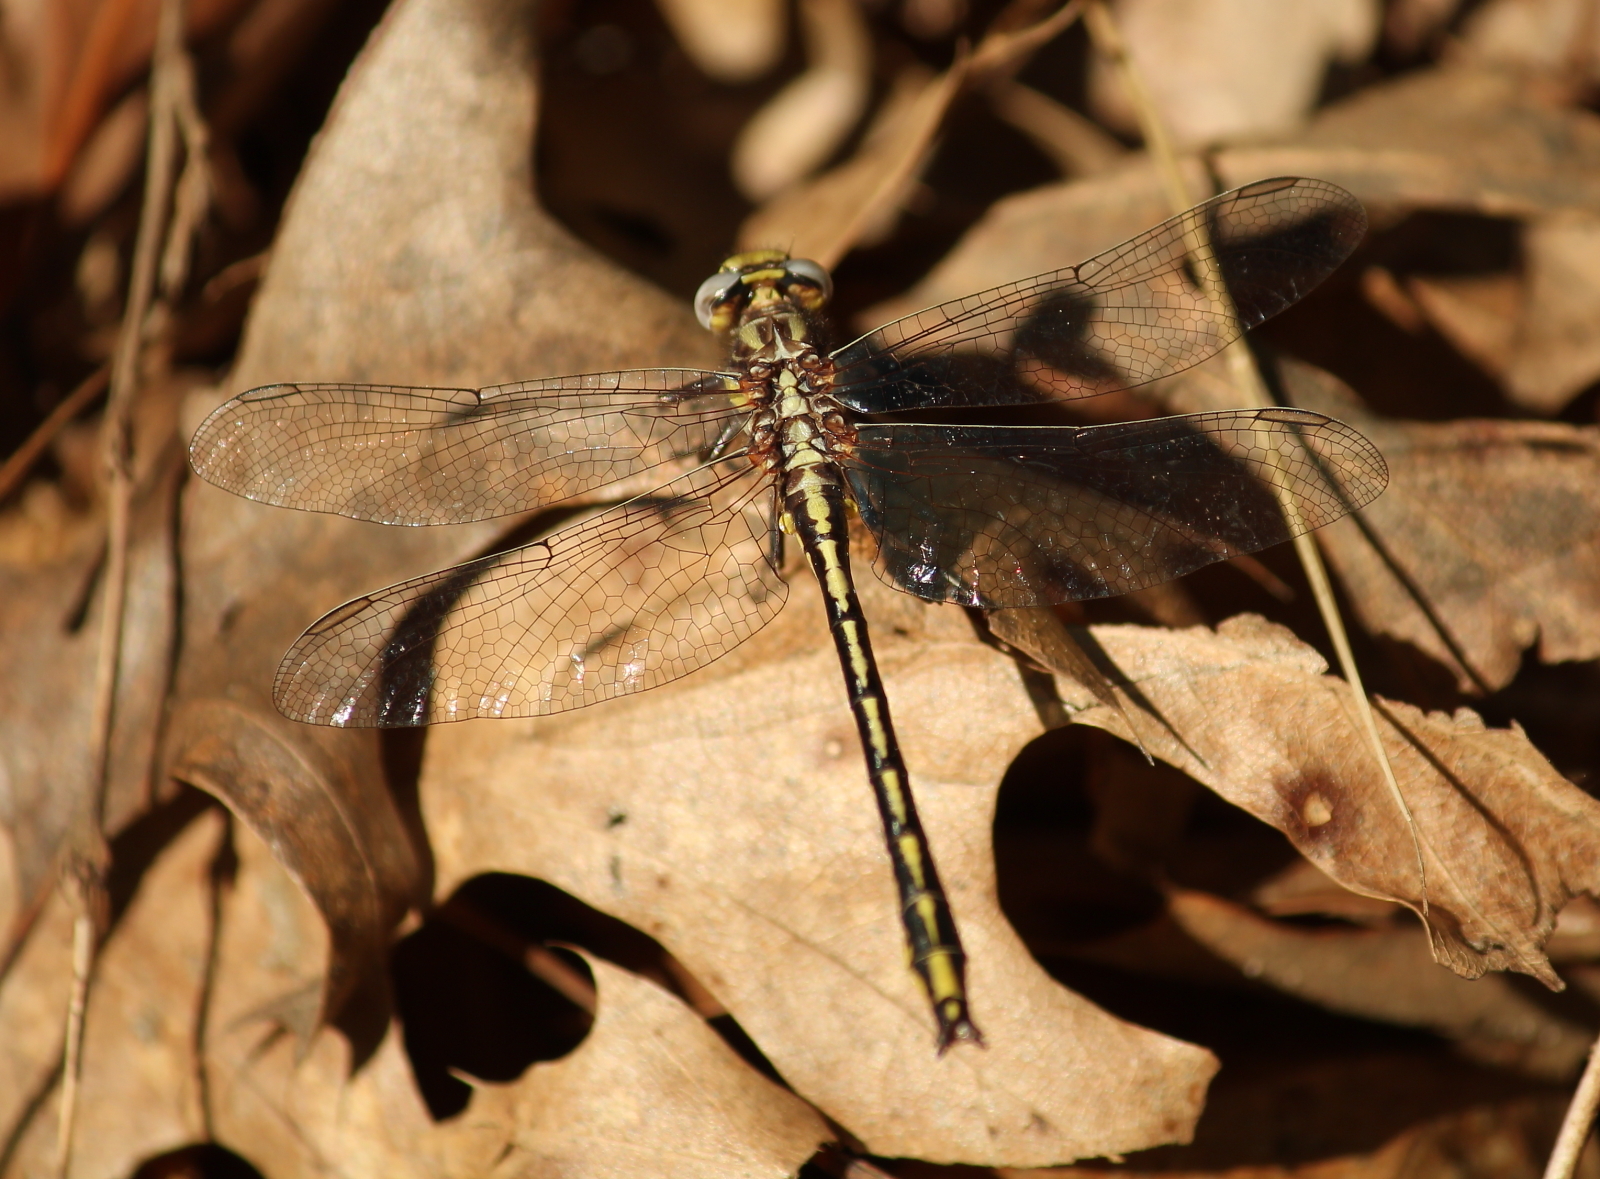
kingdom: Animalia
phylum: Arthropoda
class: Insecta
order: Odonata
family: Gomphidae
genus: Phanogomphus
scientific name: Phanogomphus oklahomensis
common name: Oklahoma clubtail
